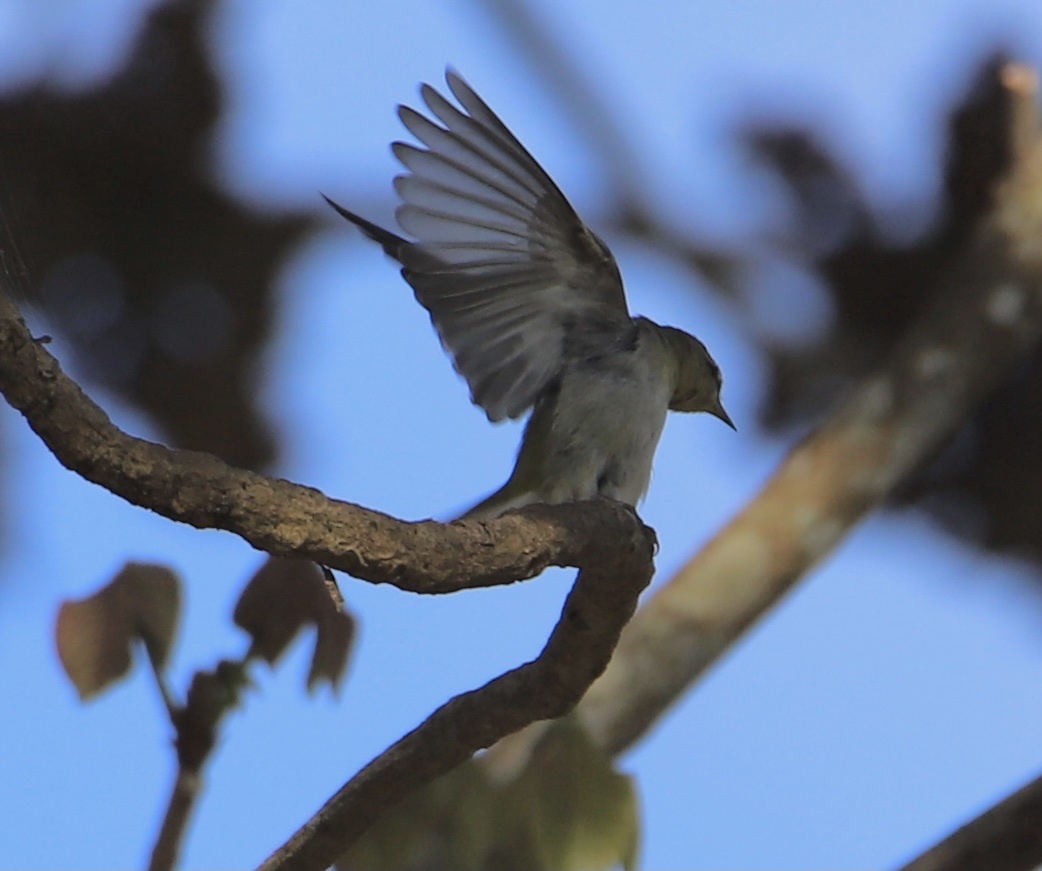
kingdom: Animalia
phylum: Chordata
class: Aves
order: Passeriformes
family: Parulidae
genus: Leiothlypis
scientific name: Leiothlypis peregrina
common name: Tennessee warbler
